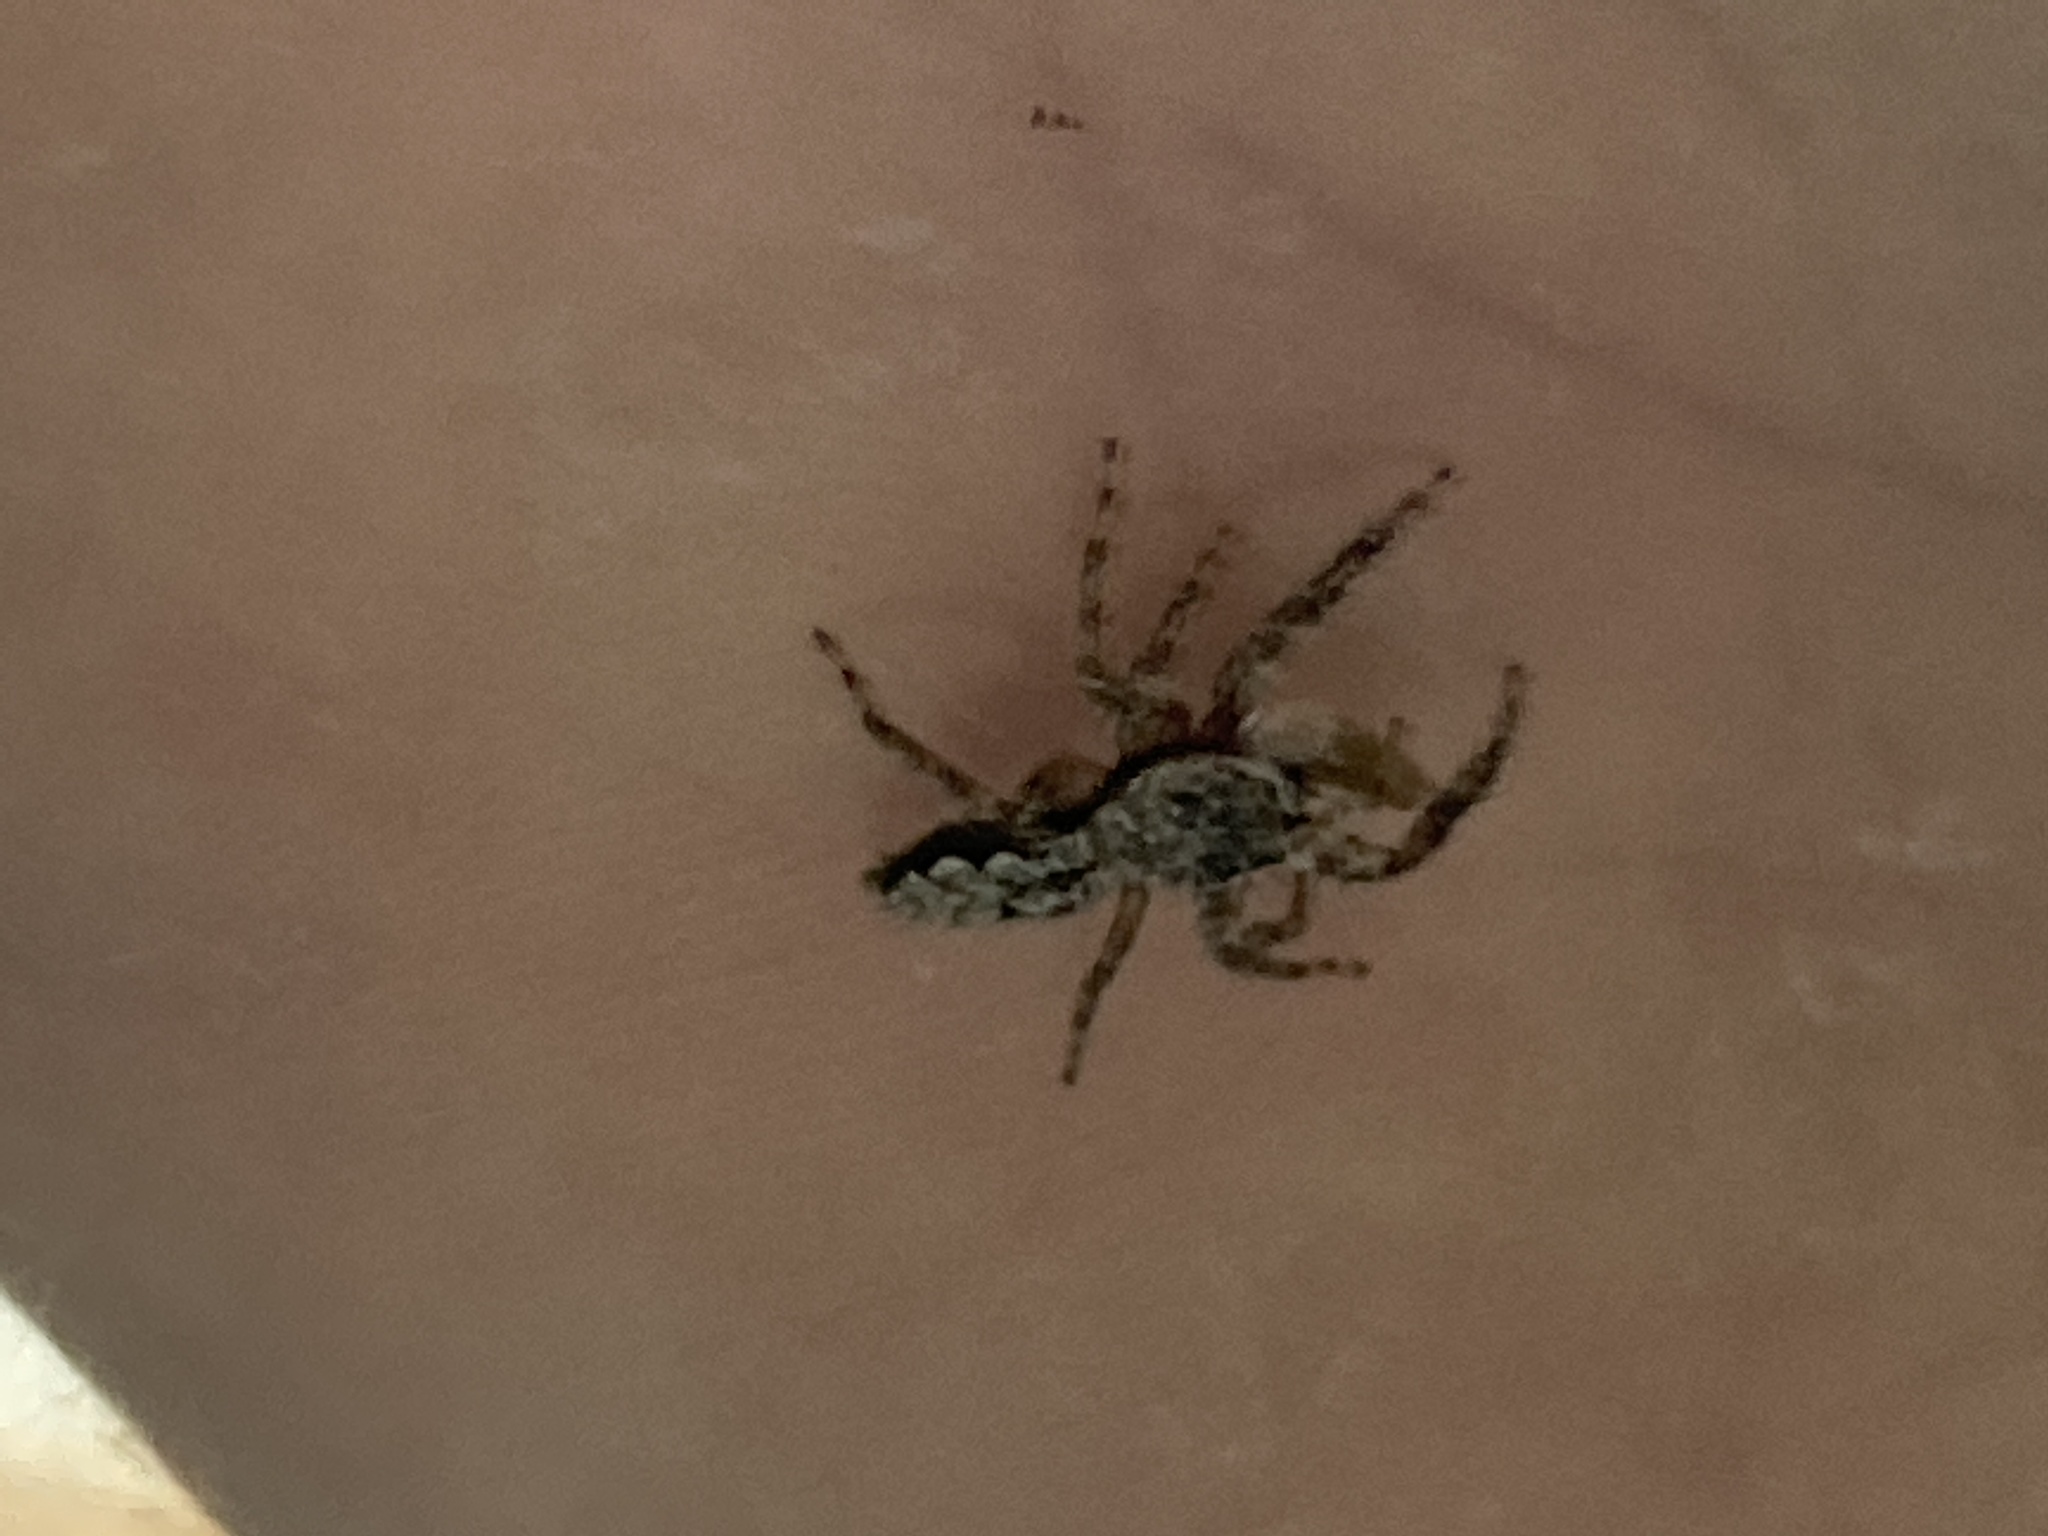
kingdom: Animalia
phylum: Arthropoda
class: Arachnida
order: Araneae
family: Salticidae
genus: Platycryptus
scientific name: Platycryptus undatus
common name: Tan jumping spider
